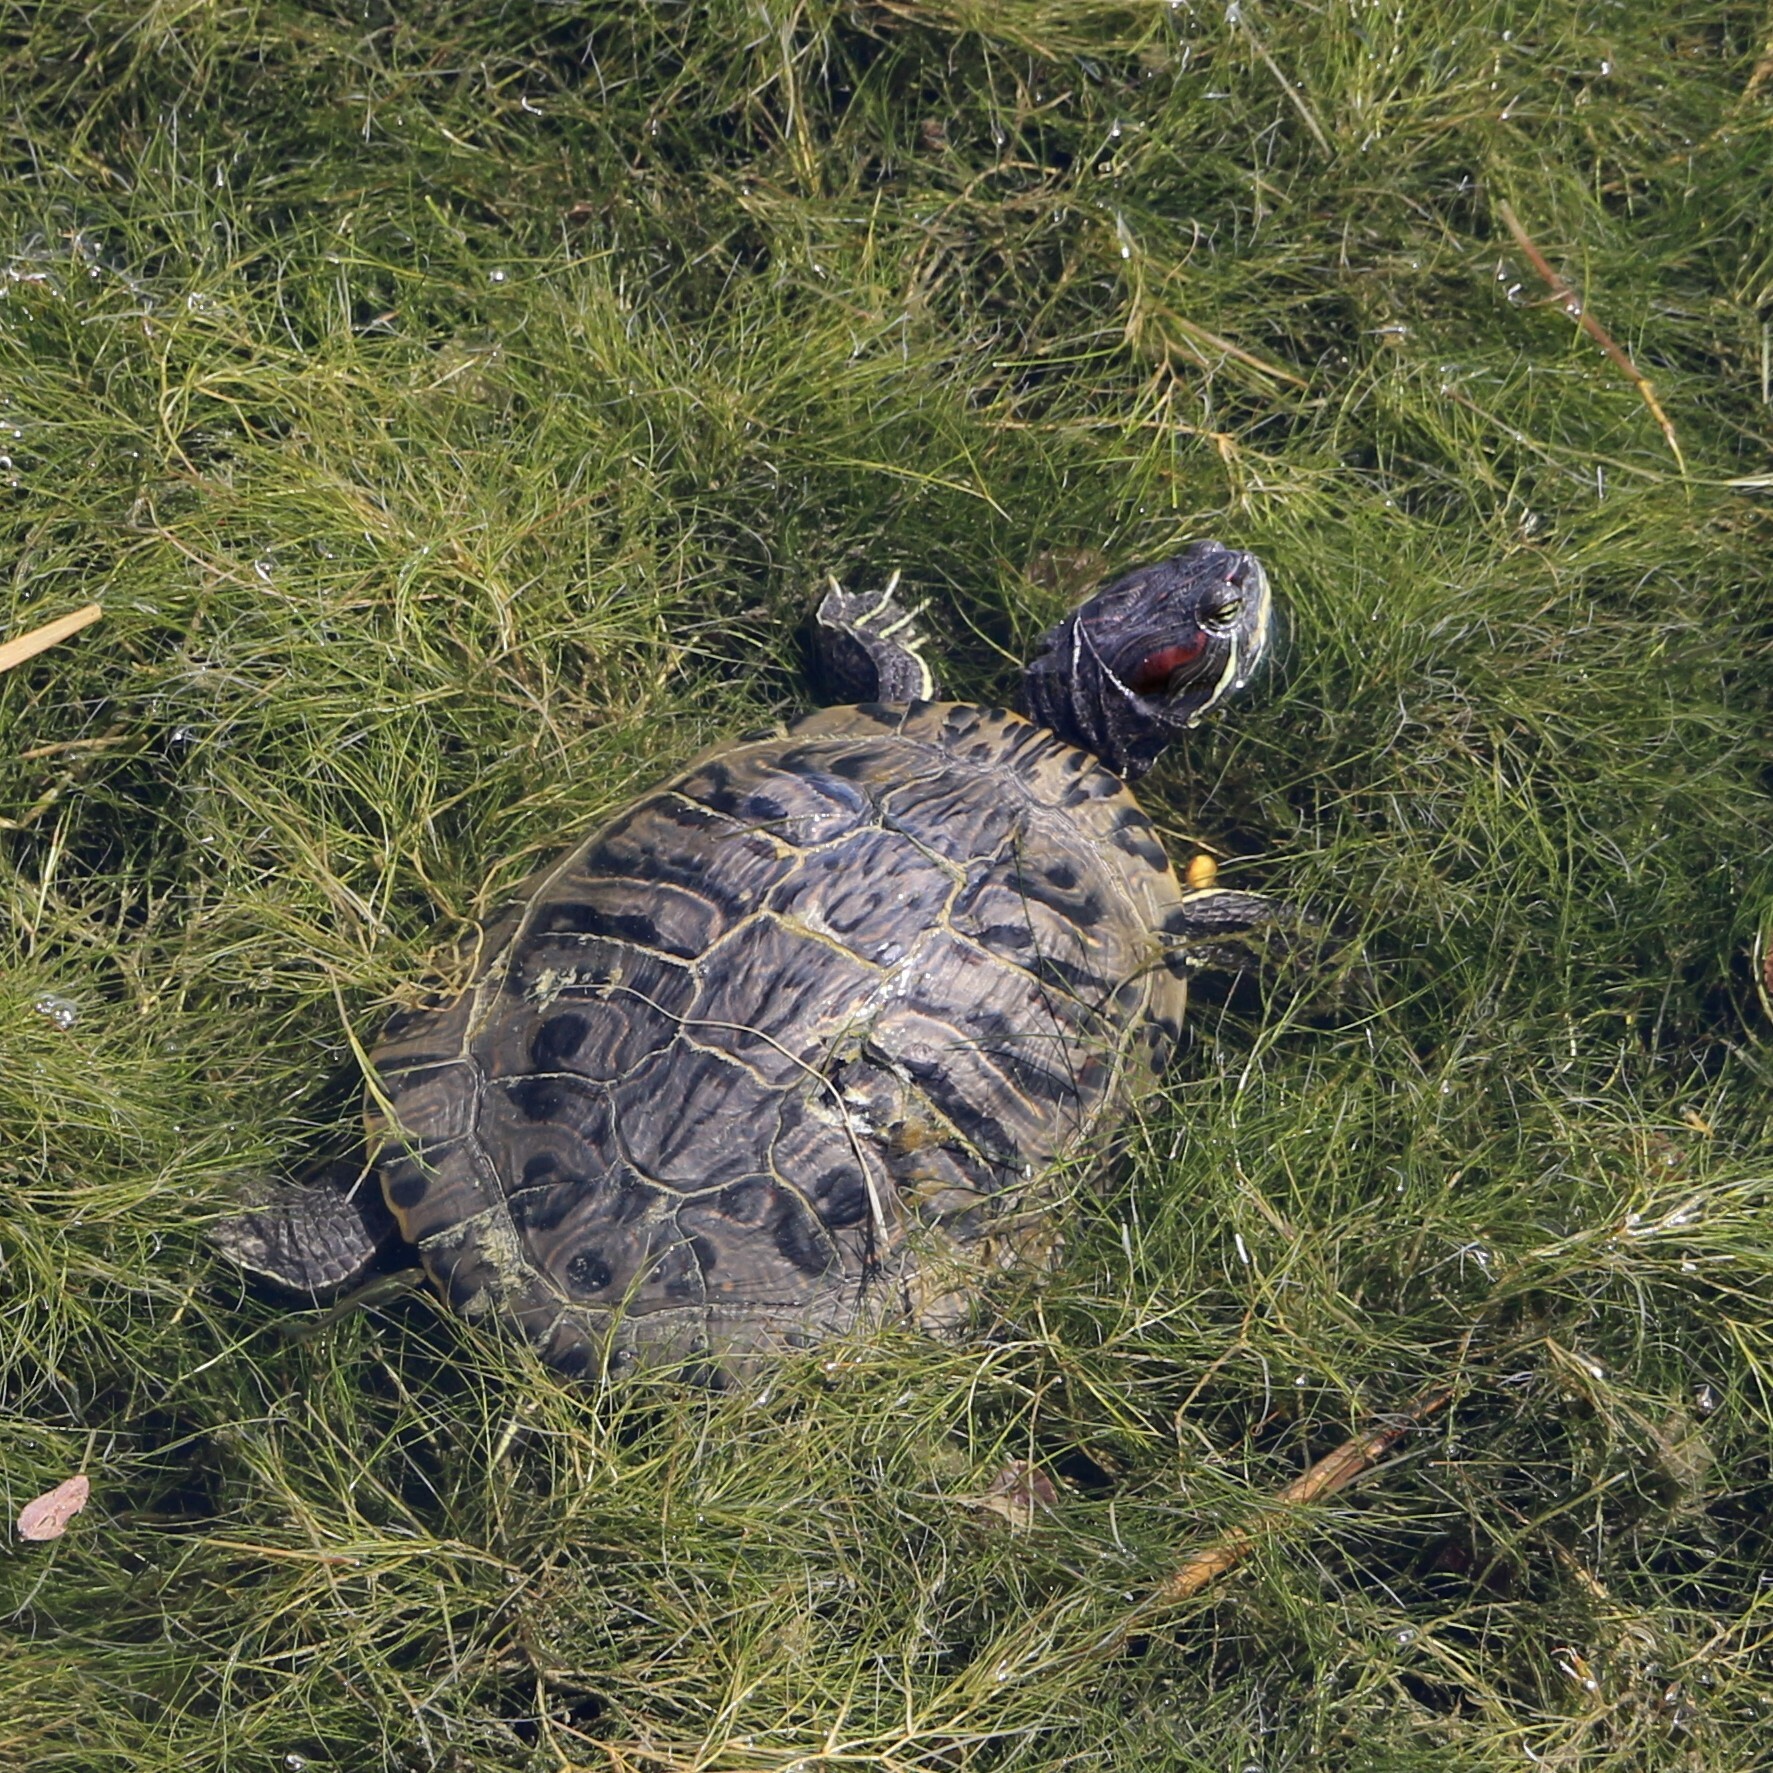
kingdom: Animalia
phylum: Chordata
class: Testudines
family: Emydidae
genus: Trachemys
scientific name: Trachemys scripta
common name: Slider
